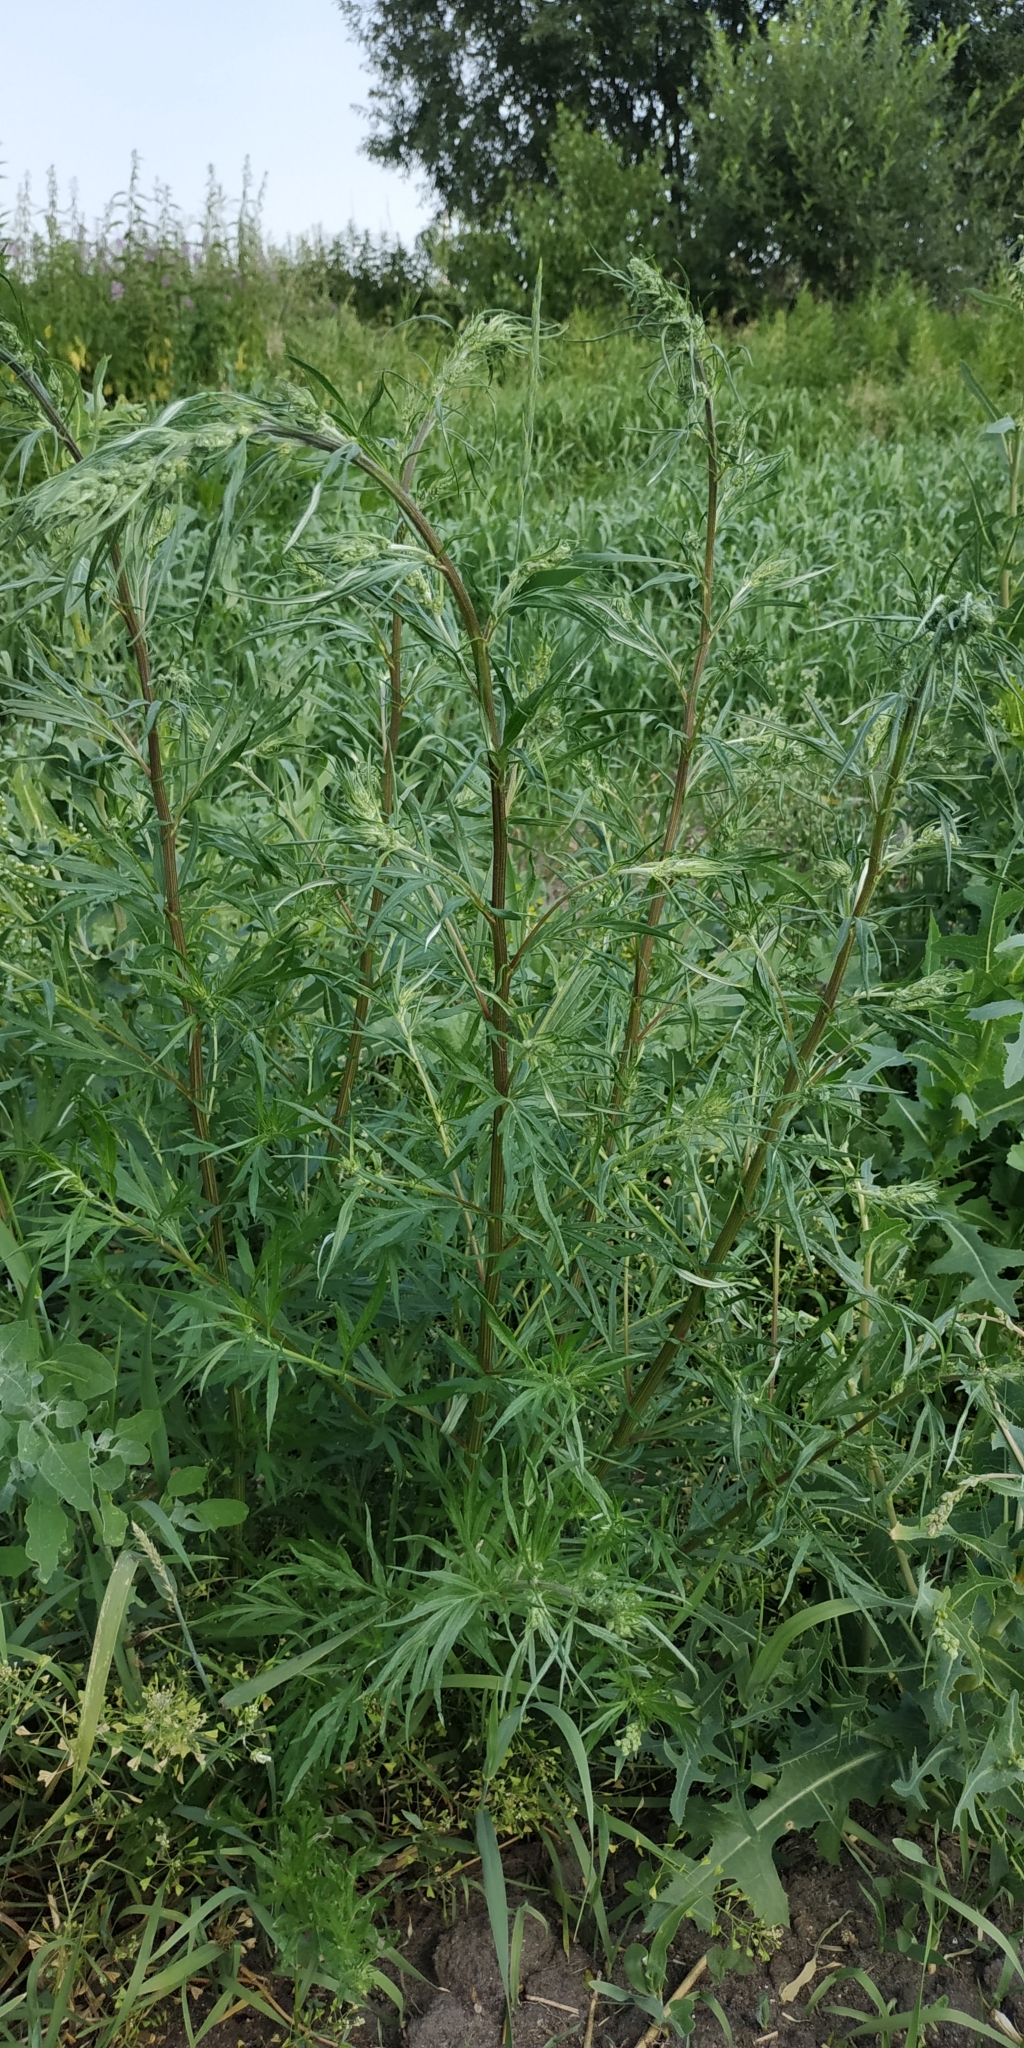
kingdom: Plantae
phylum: Tracheophyta
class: Magnoliopsida
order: Asterales
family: Asteraceae
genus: Artemisia
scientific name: Artemisia vulgaris
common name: Mugwort
